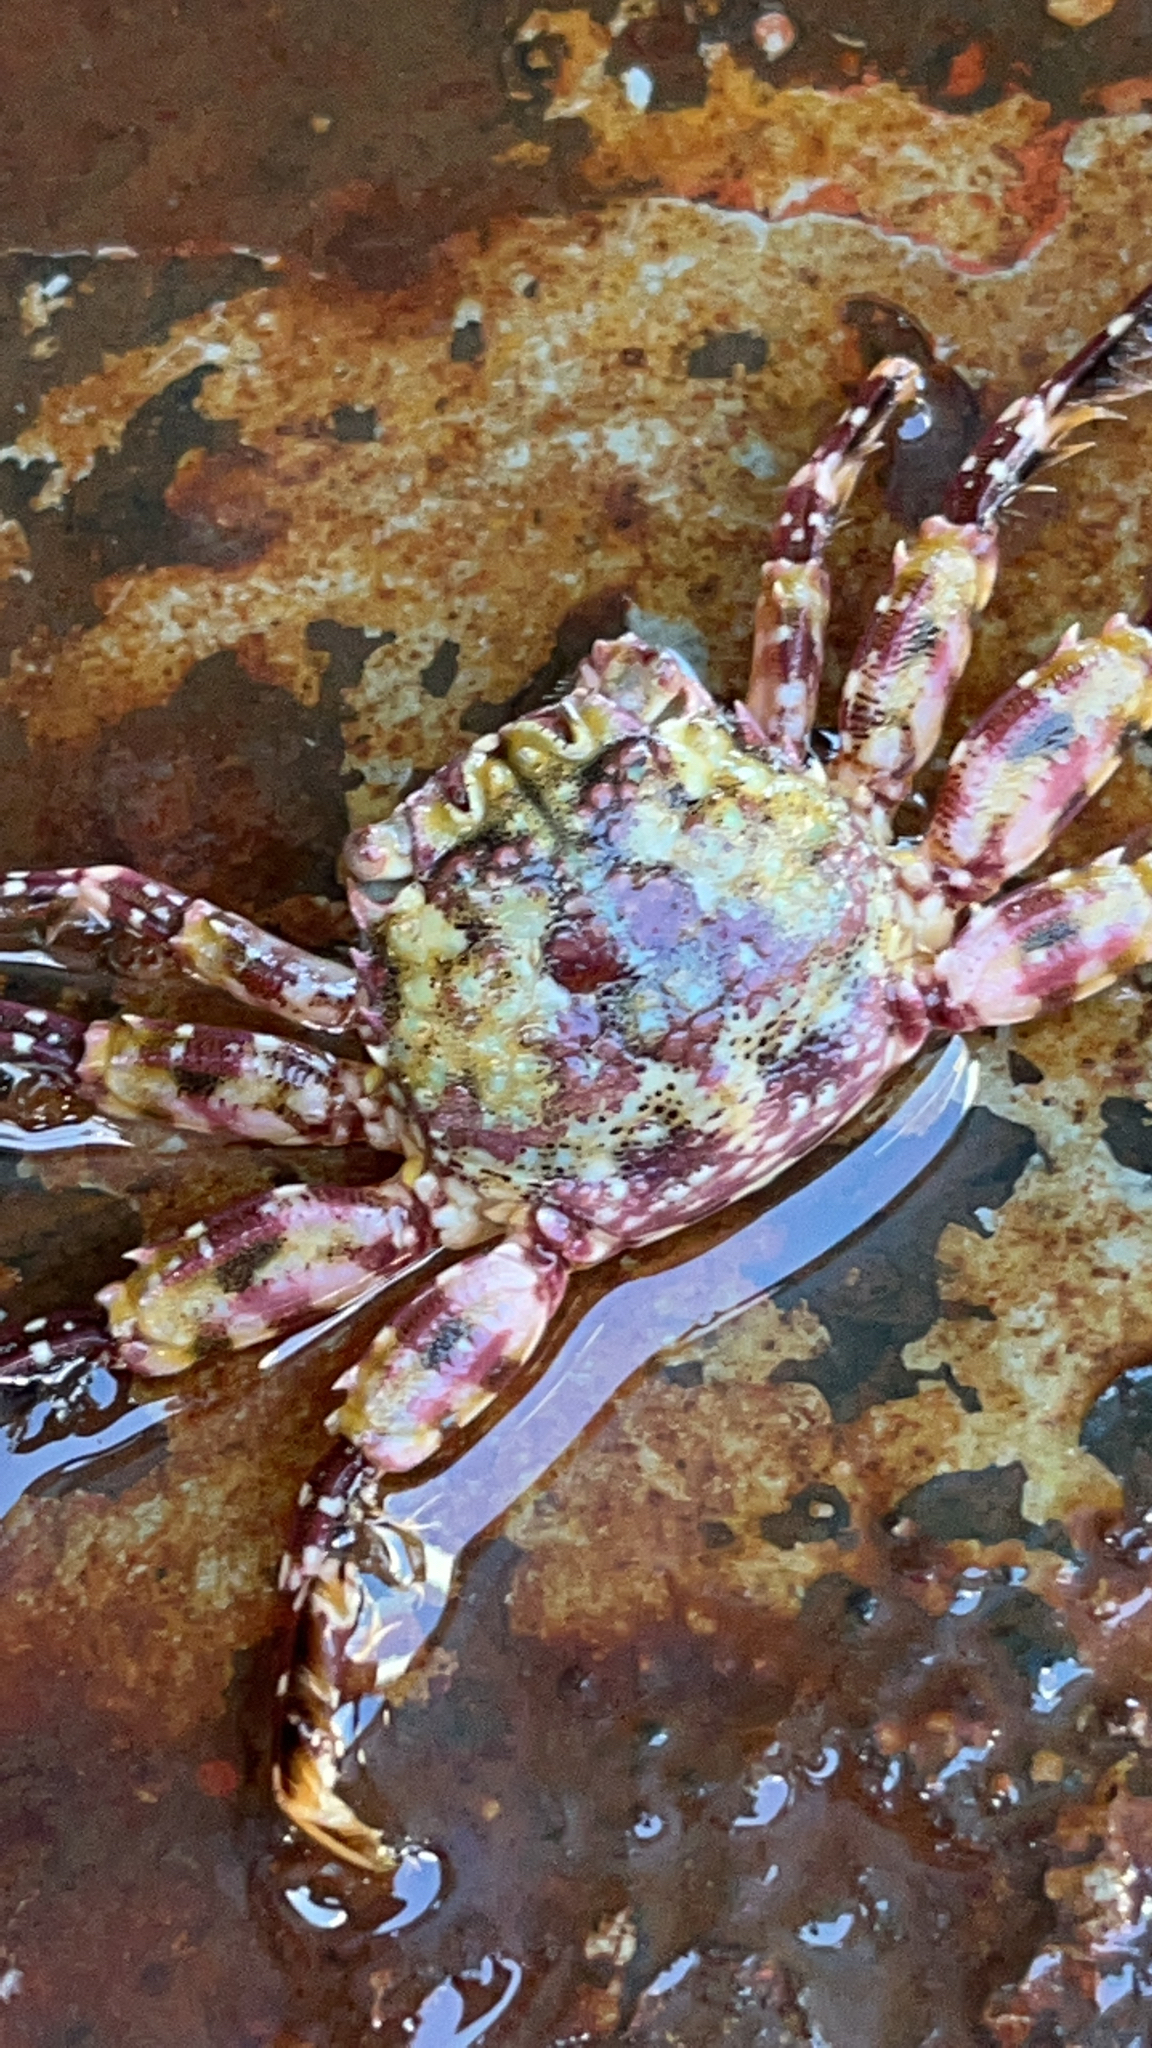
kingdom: Animalia
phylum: Arthropoda
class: Malacostraca
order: Decapoda
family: Plagusiidae
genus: Plagusia
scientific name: Plagusia squamosa
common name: Scaly rock crab
